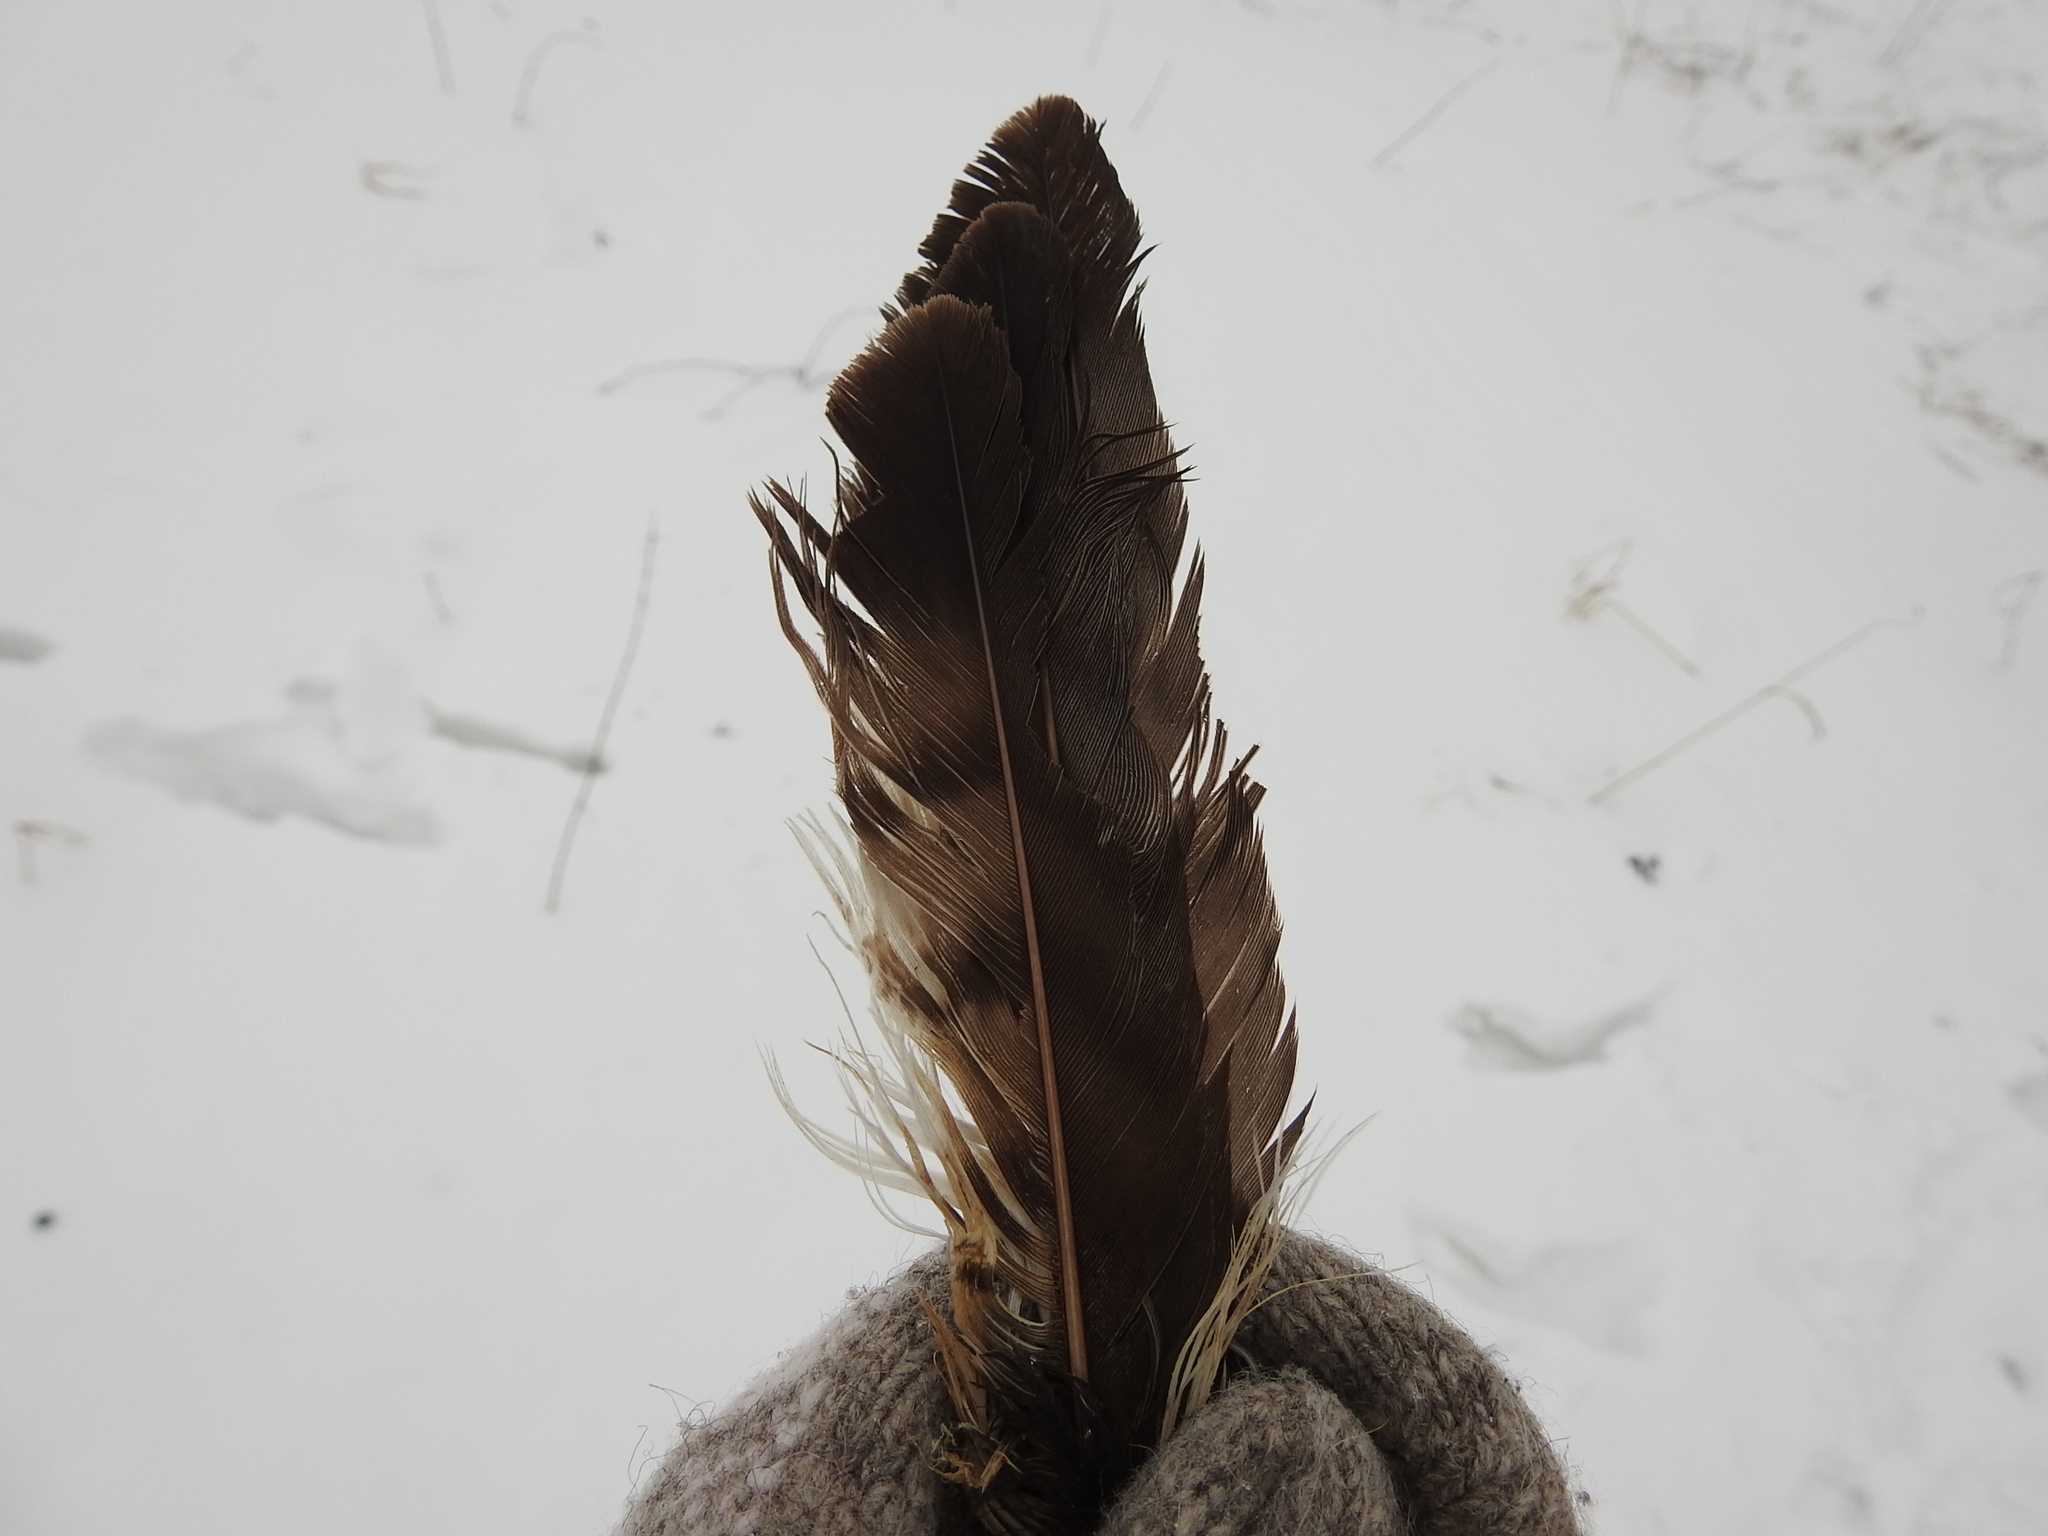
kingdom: Animalia
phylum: Chordata
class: Aves
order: Accipitriformes
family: Accipitridae
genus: Buteo
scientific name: Buteo buteo
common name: Common buzzard
